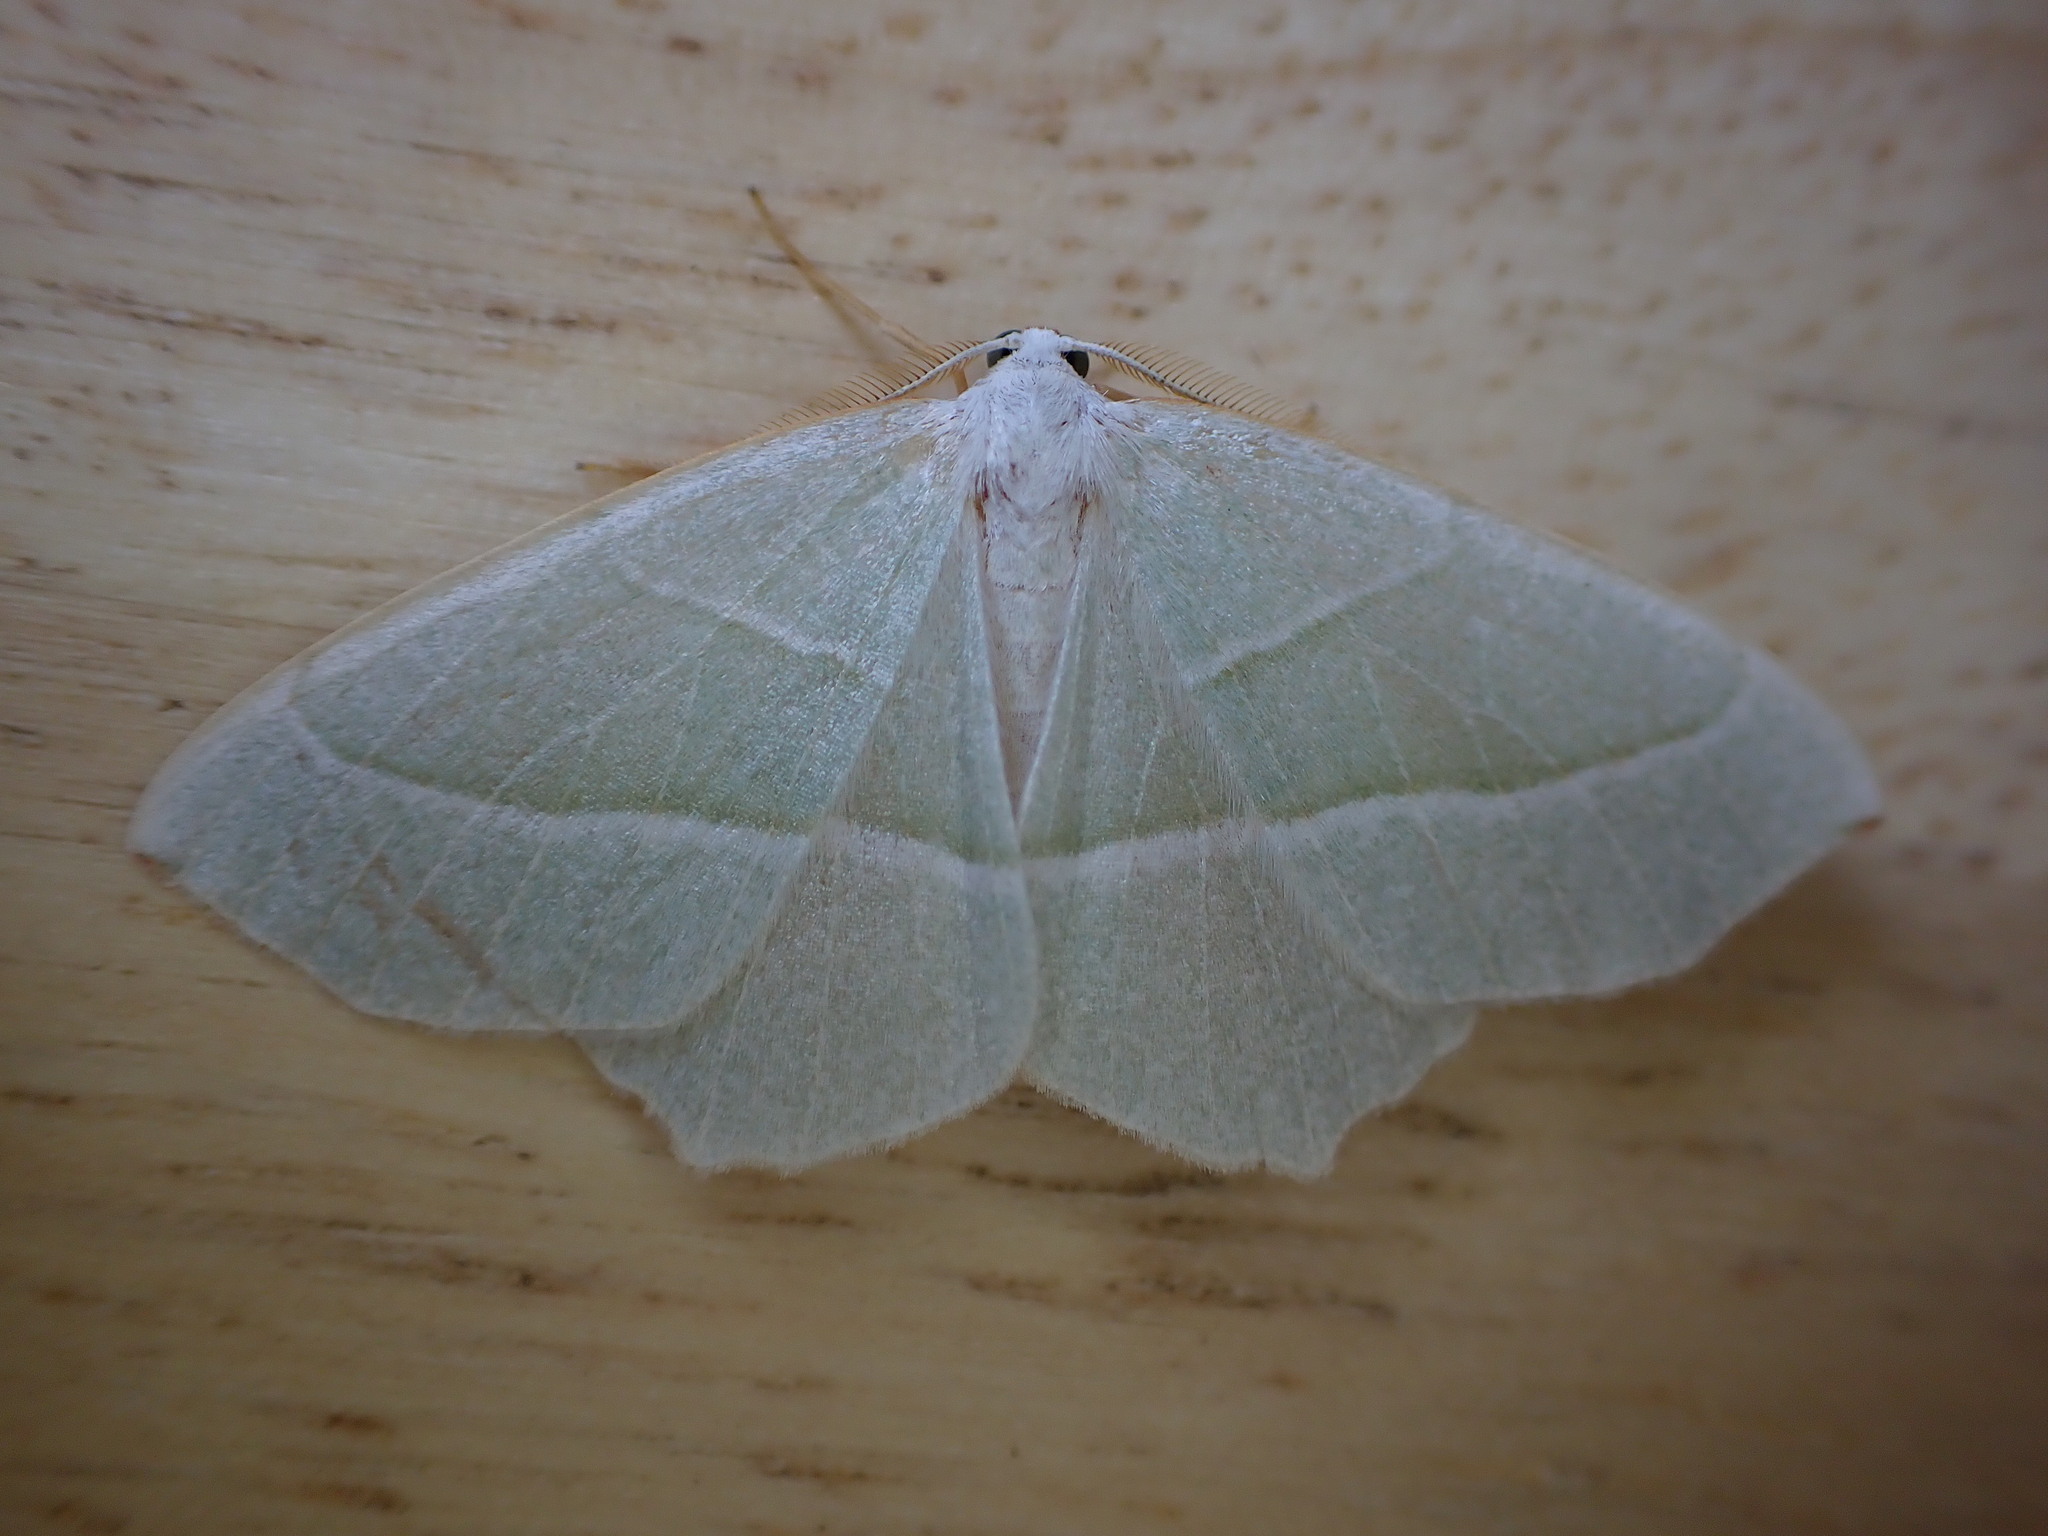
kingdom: Animalia
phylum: Arthropoda
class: Insecta
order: Lepidoptera
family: Geometridae
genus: Campaea
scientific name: Campaea margaritaria
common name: Light emerald
